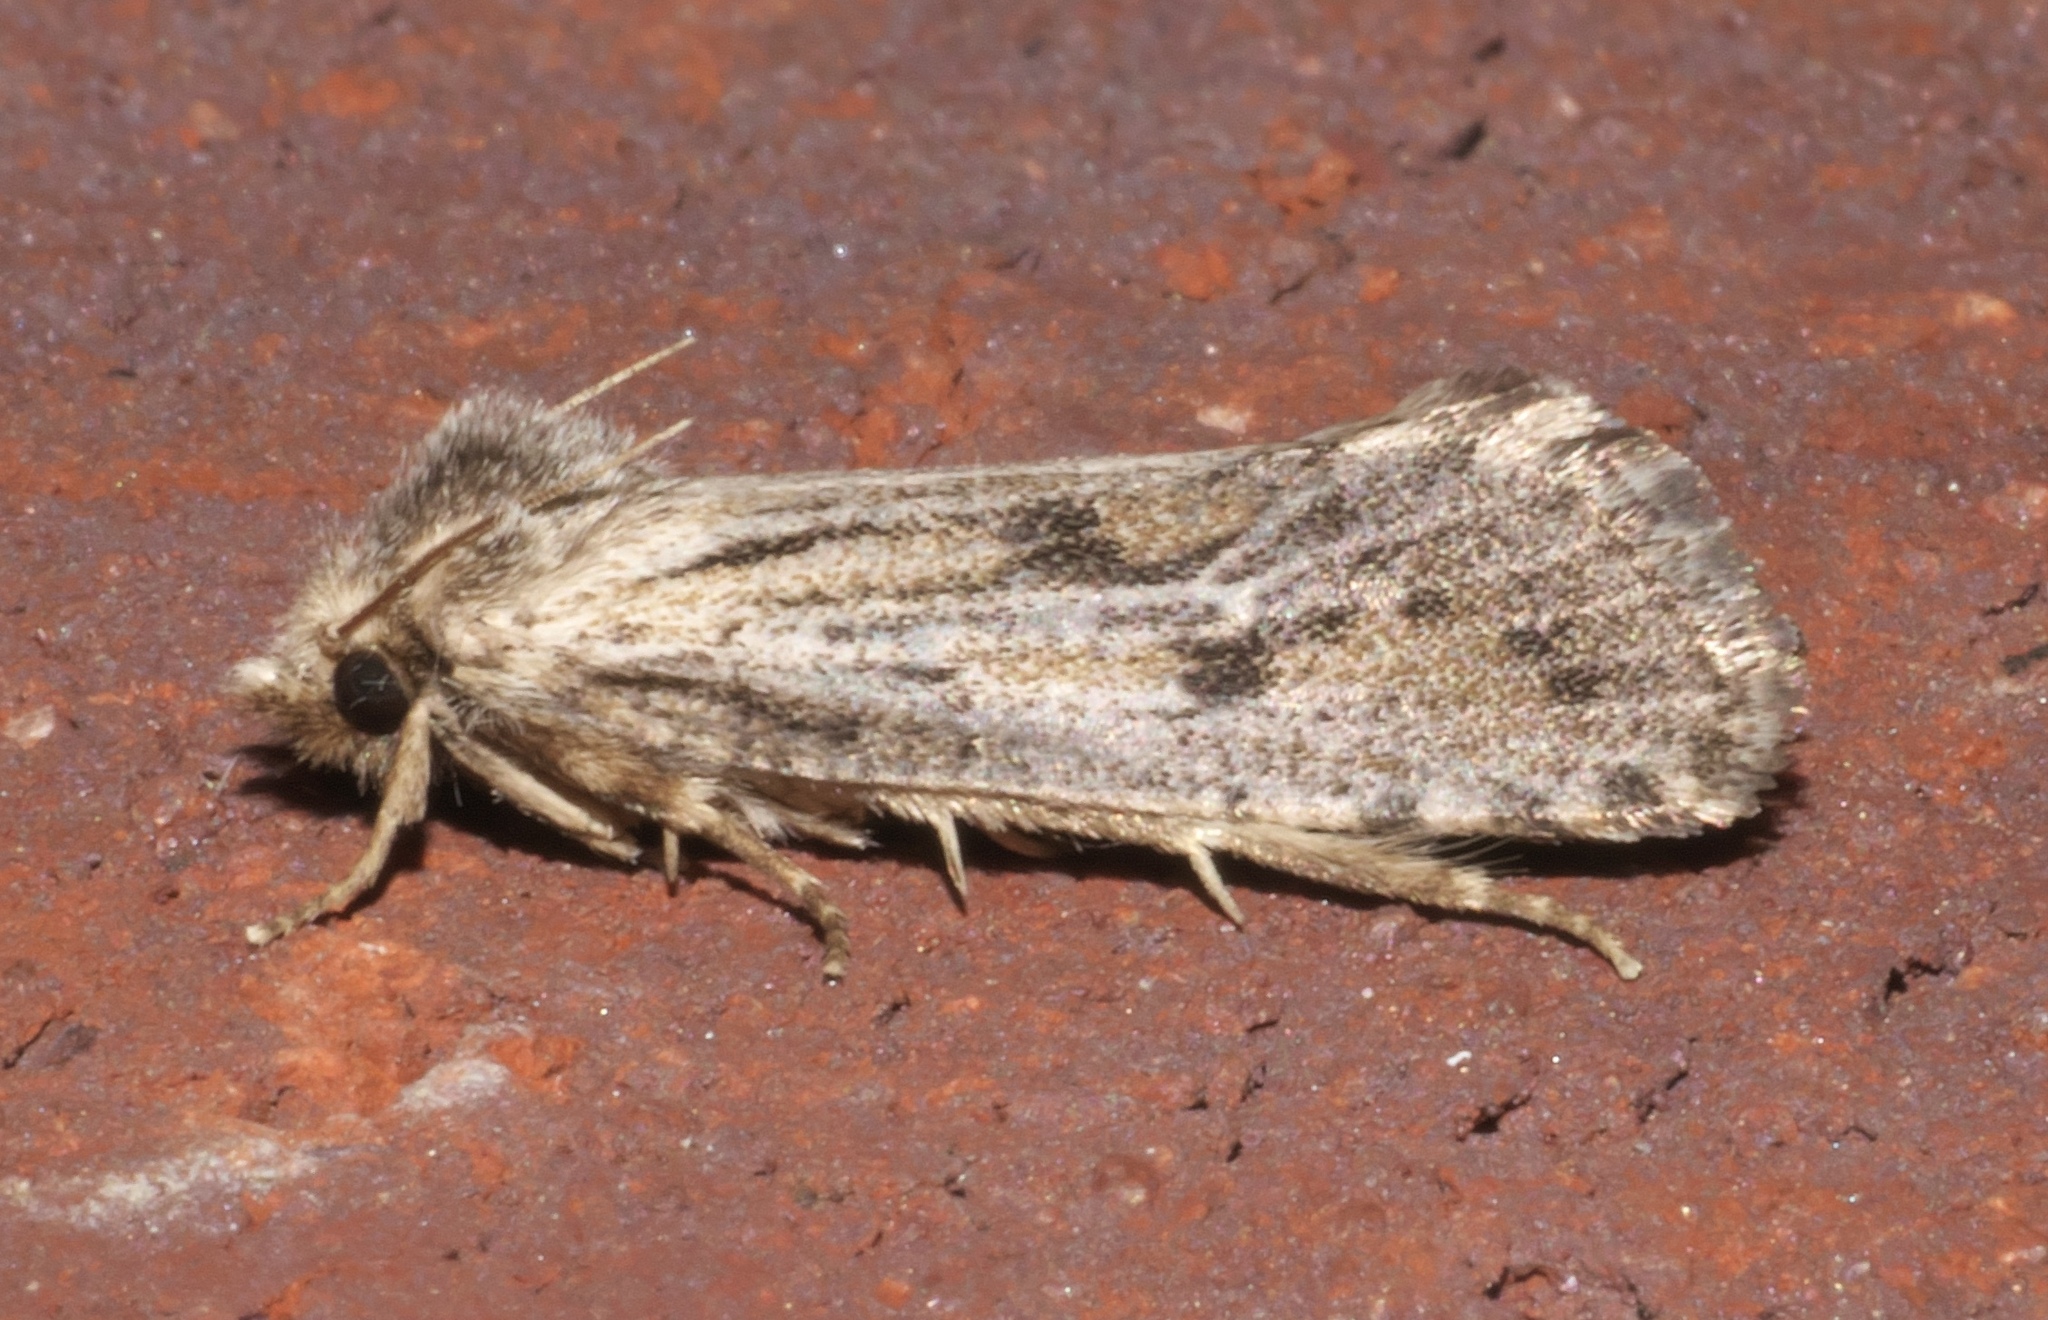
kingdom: Animalia
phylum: Arthropoda
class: Insecta
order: Lepidoptera
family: Tineidae
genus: Acrolophus
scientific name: Acrolophus popeanella
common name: Clemens' grass tubeworm moth
